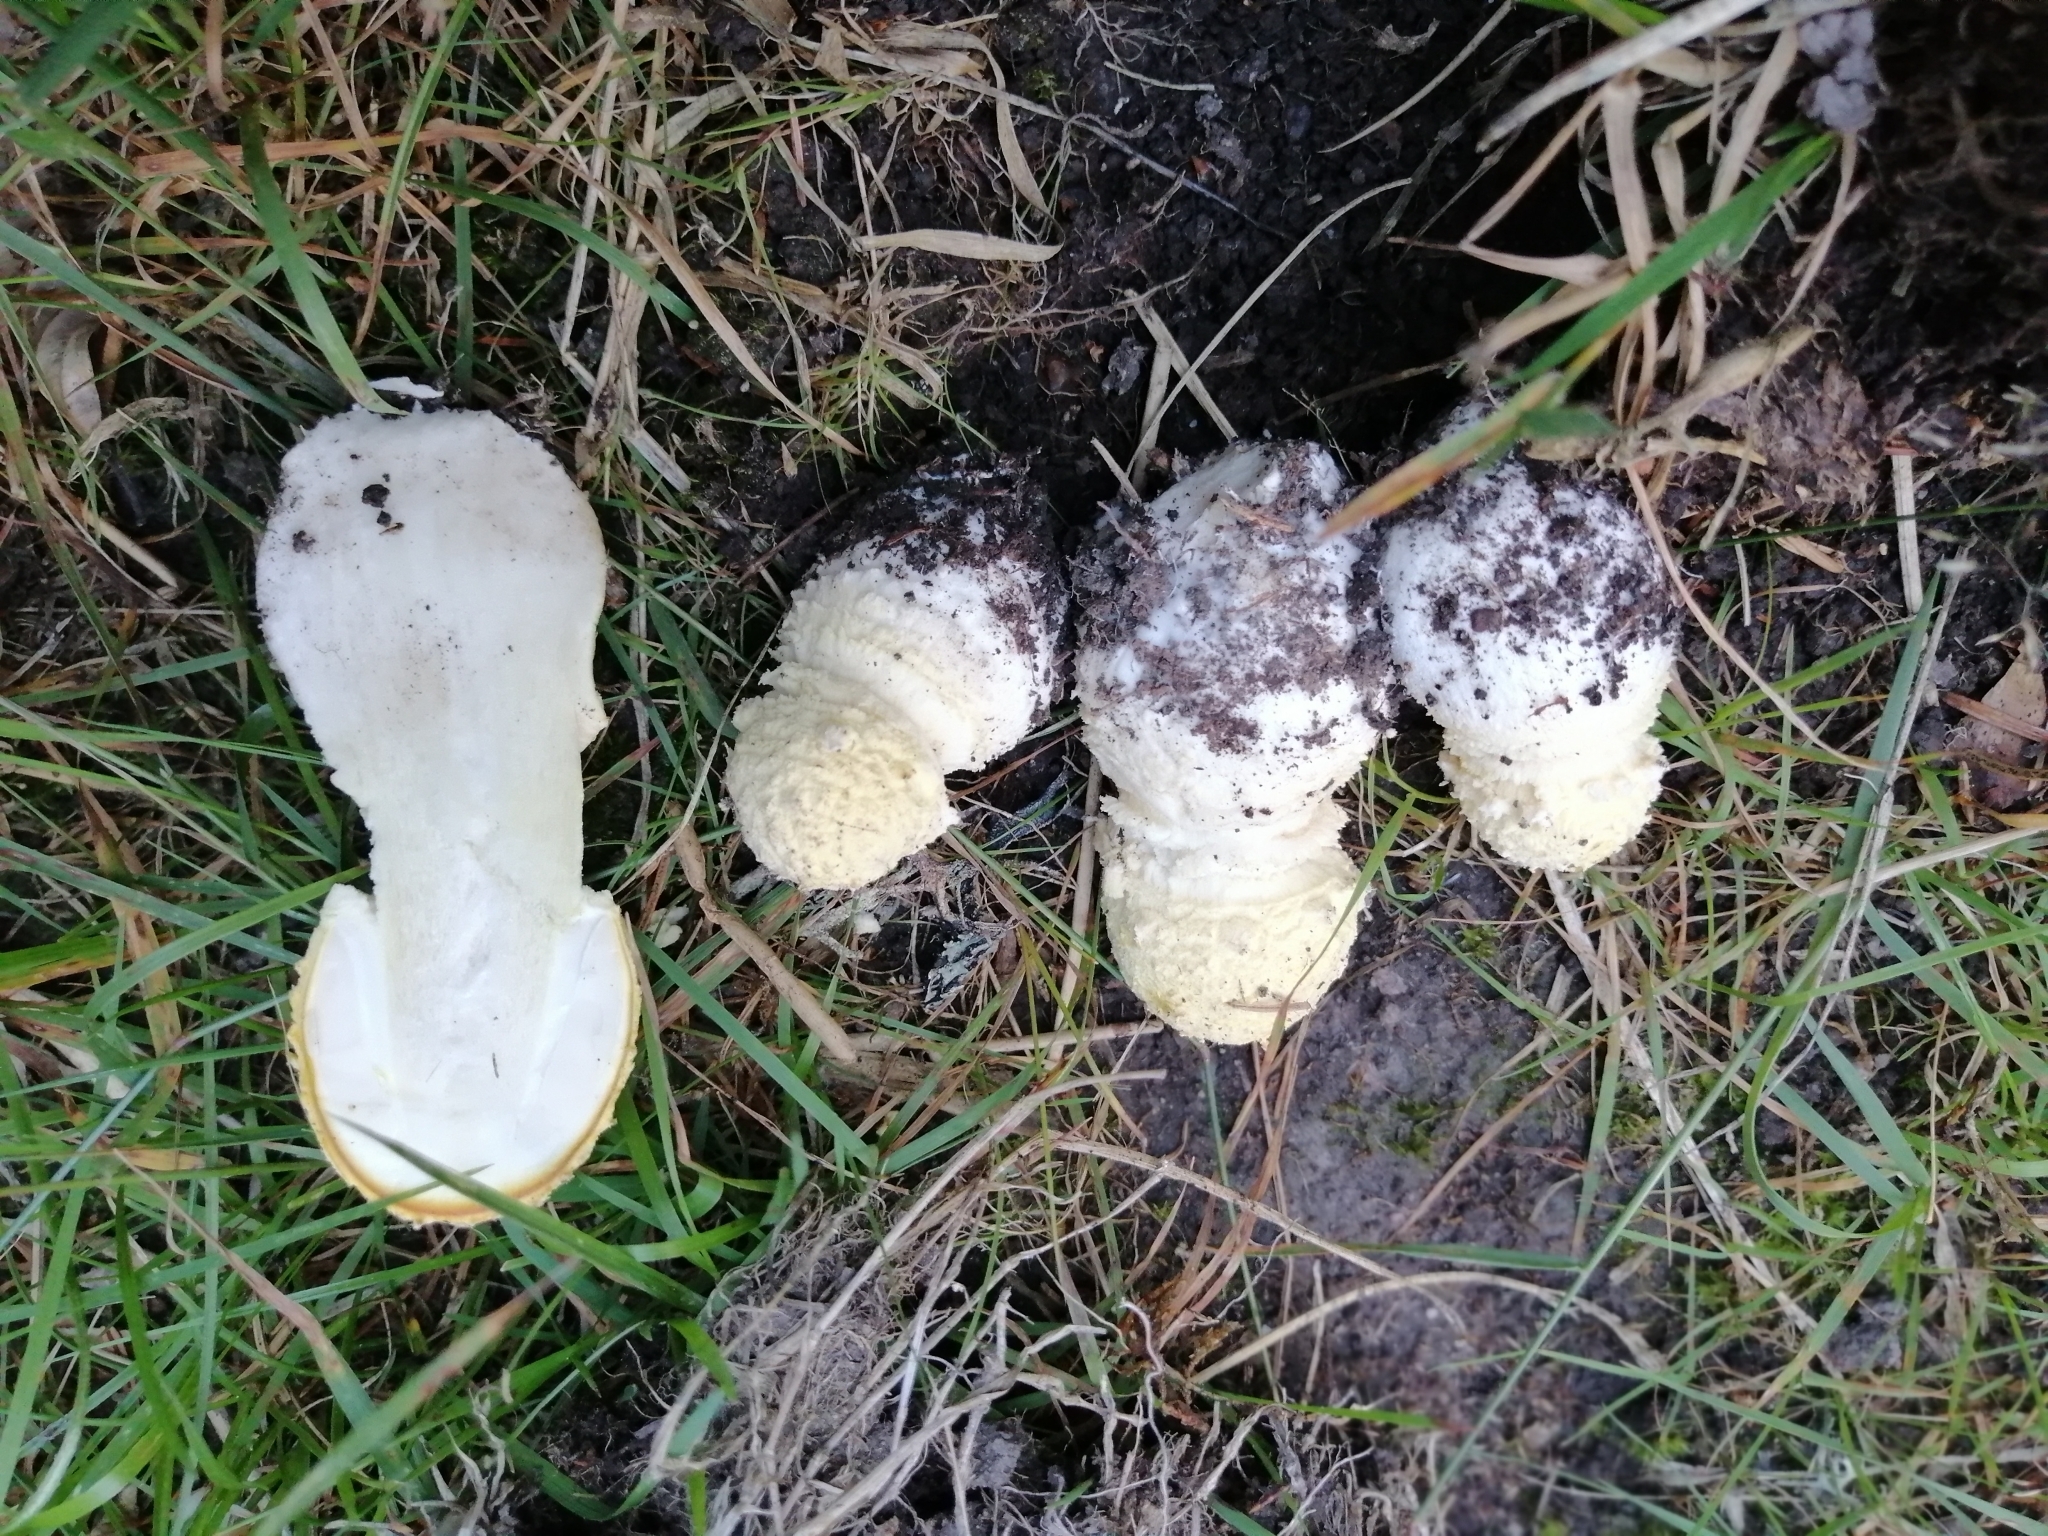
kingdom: Fungi
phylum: Basidiomycota
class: Agaricomycetes
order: Agaricales
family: Amanitaceae
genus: Amanita
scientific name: Amanita regalis
